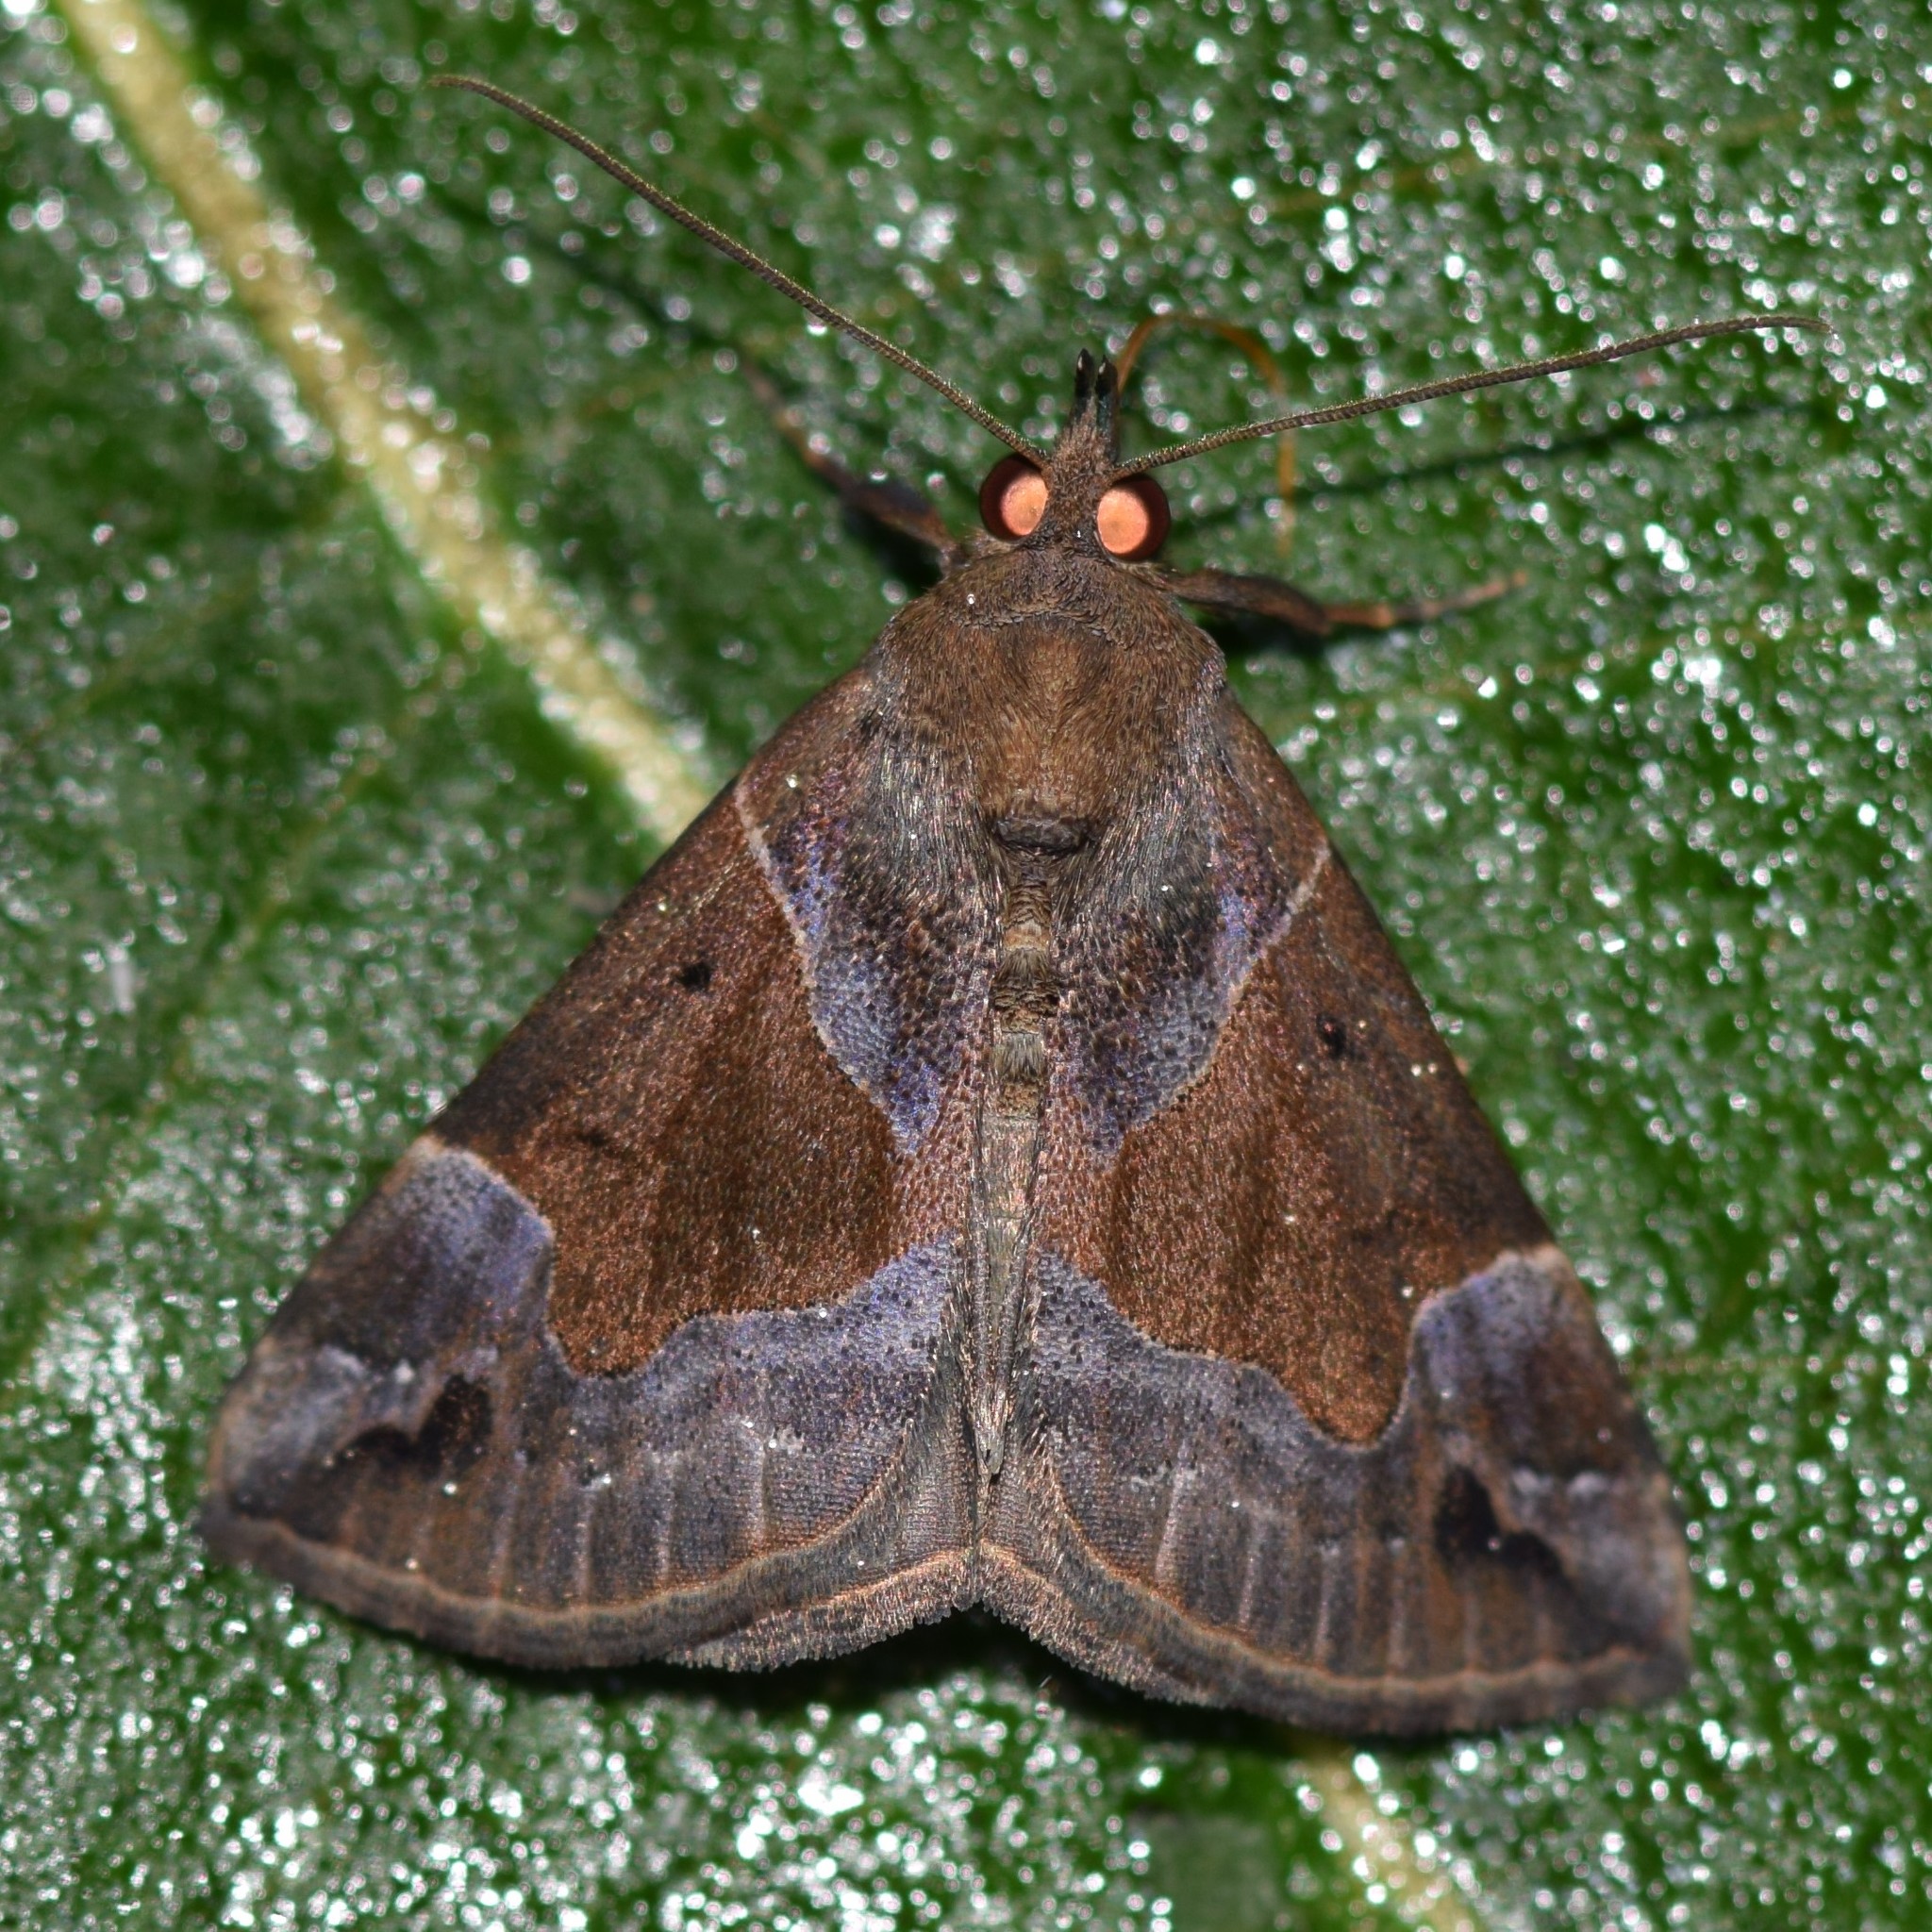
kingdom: Animalia
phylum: Arthropoda
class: Insecta
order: Lepidoptera
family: Erebidae
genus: Hypena
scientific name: Hypena manalis
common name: Flowing-line bomolocha moth
